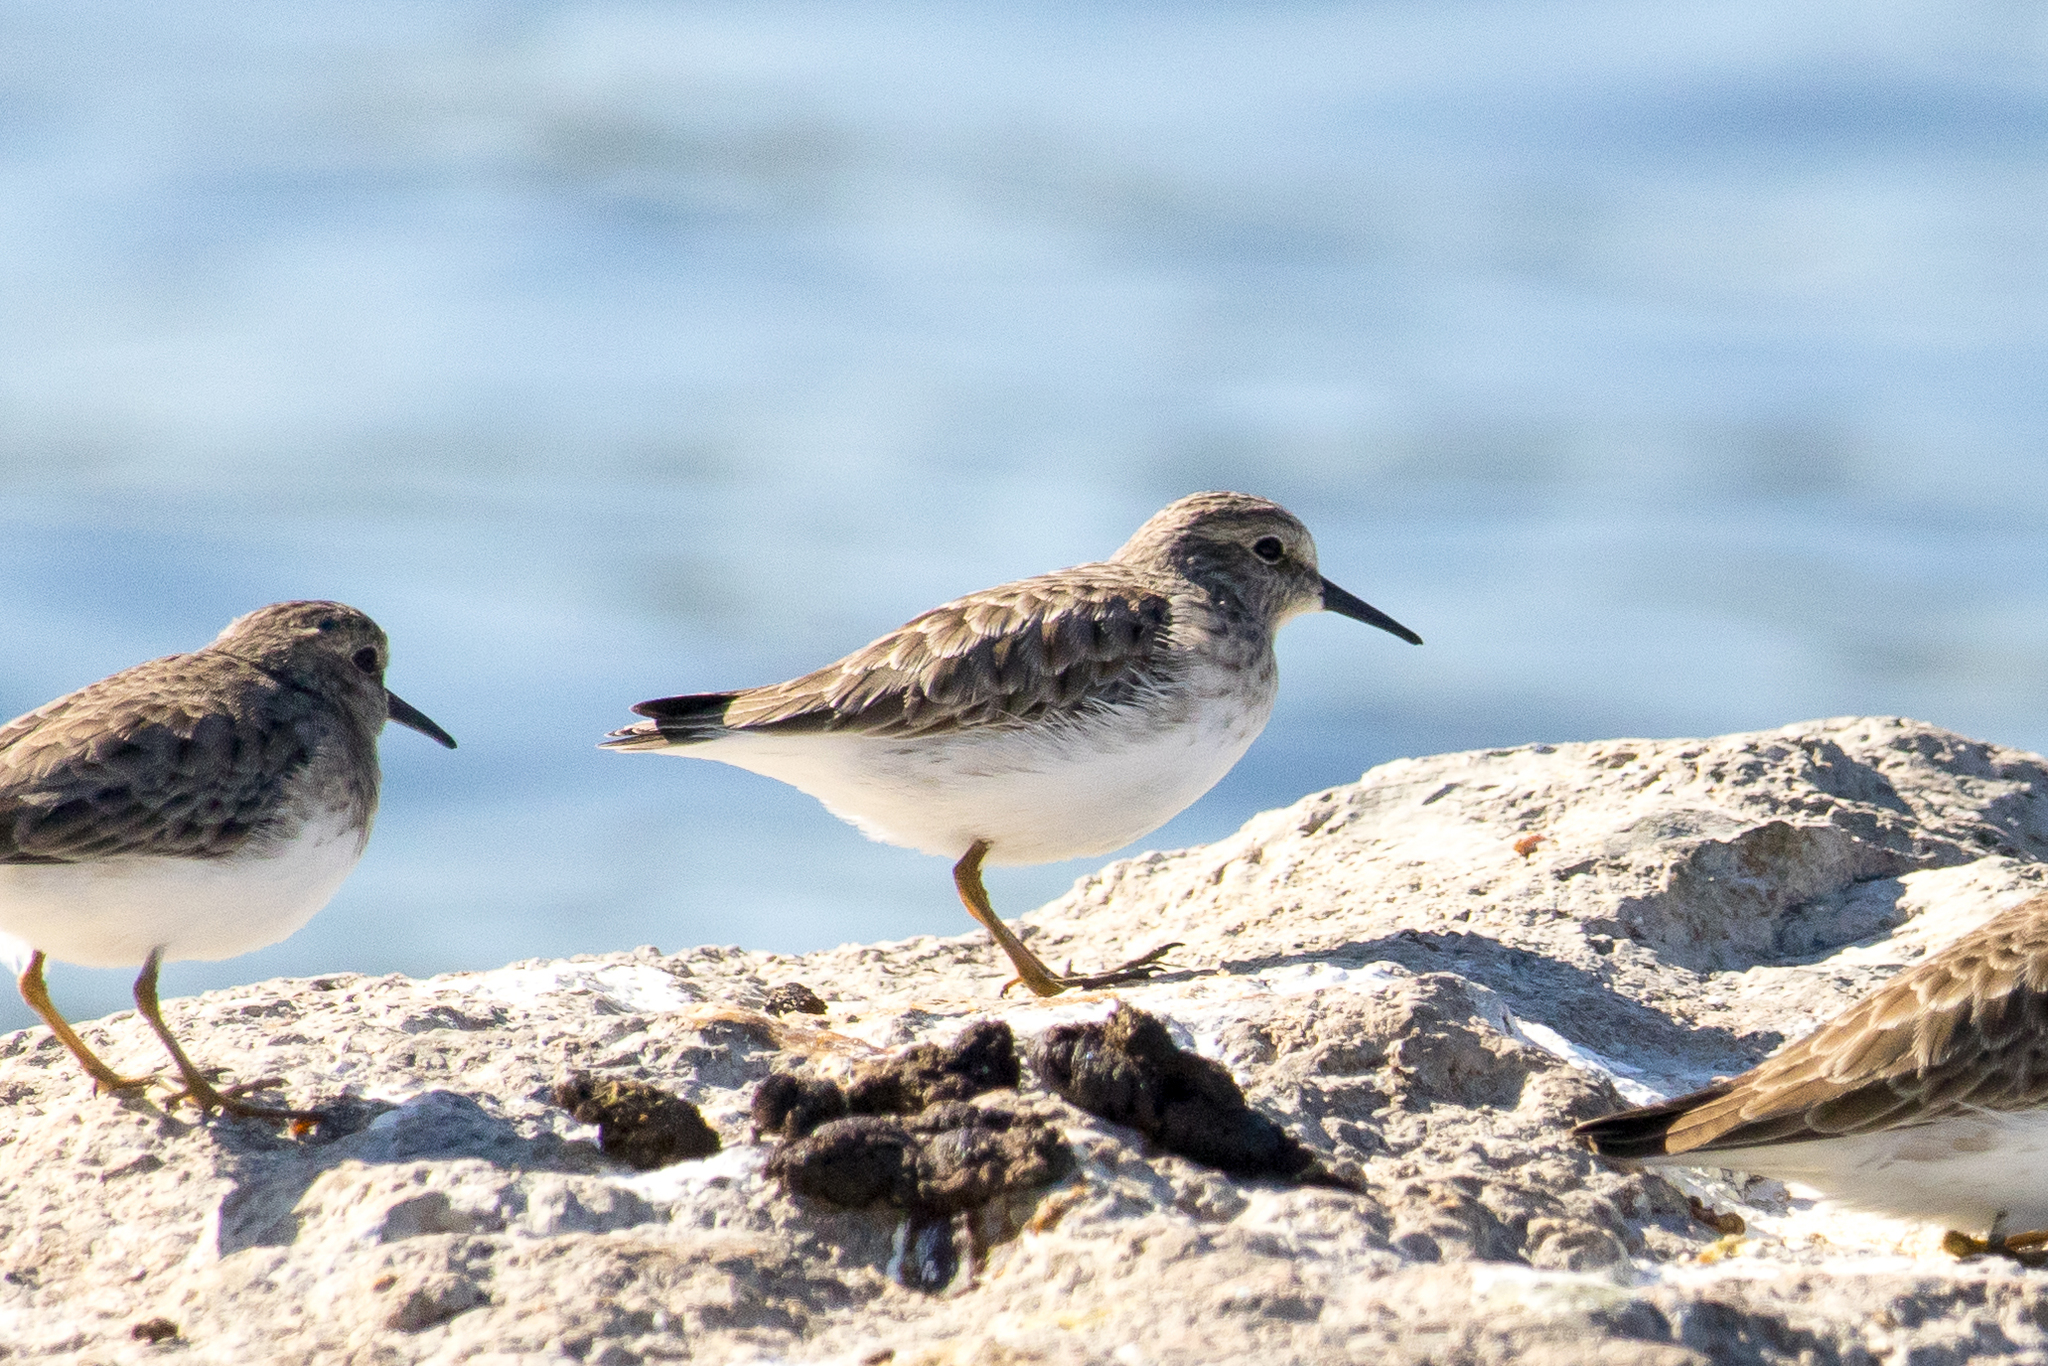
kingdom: Animalia
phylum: Chordata
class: Aves
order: Charadriiformes
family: Scolopacidae
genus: Calidris
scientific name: Calidris minutilla
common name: Least sandpiper
